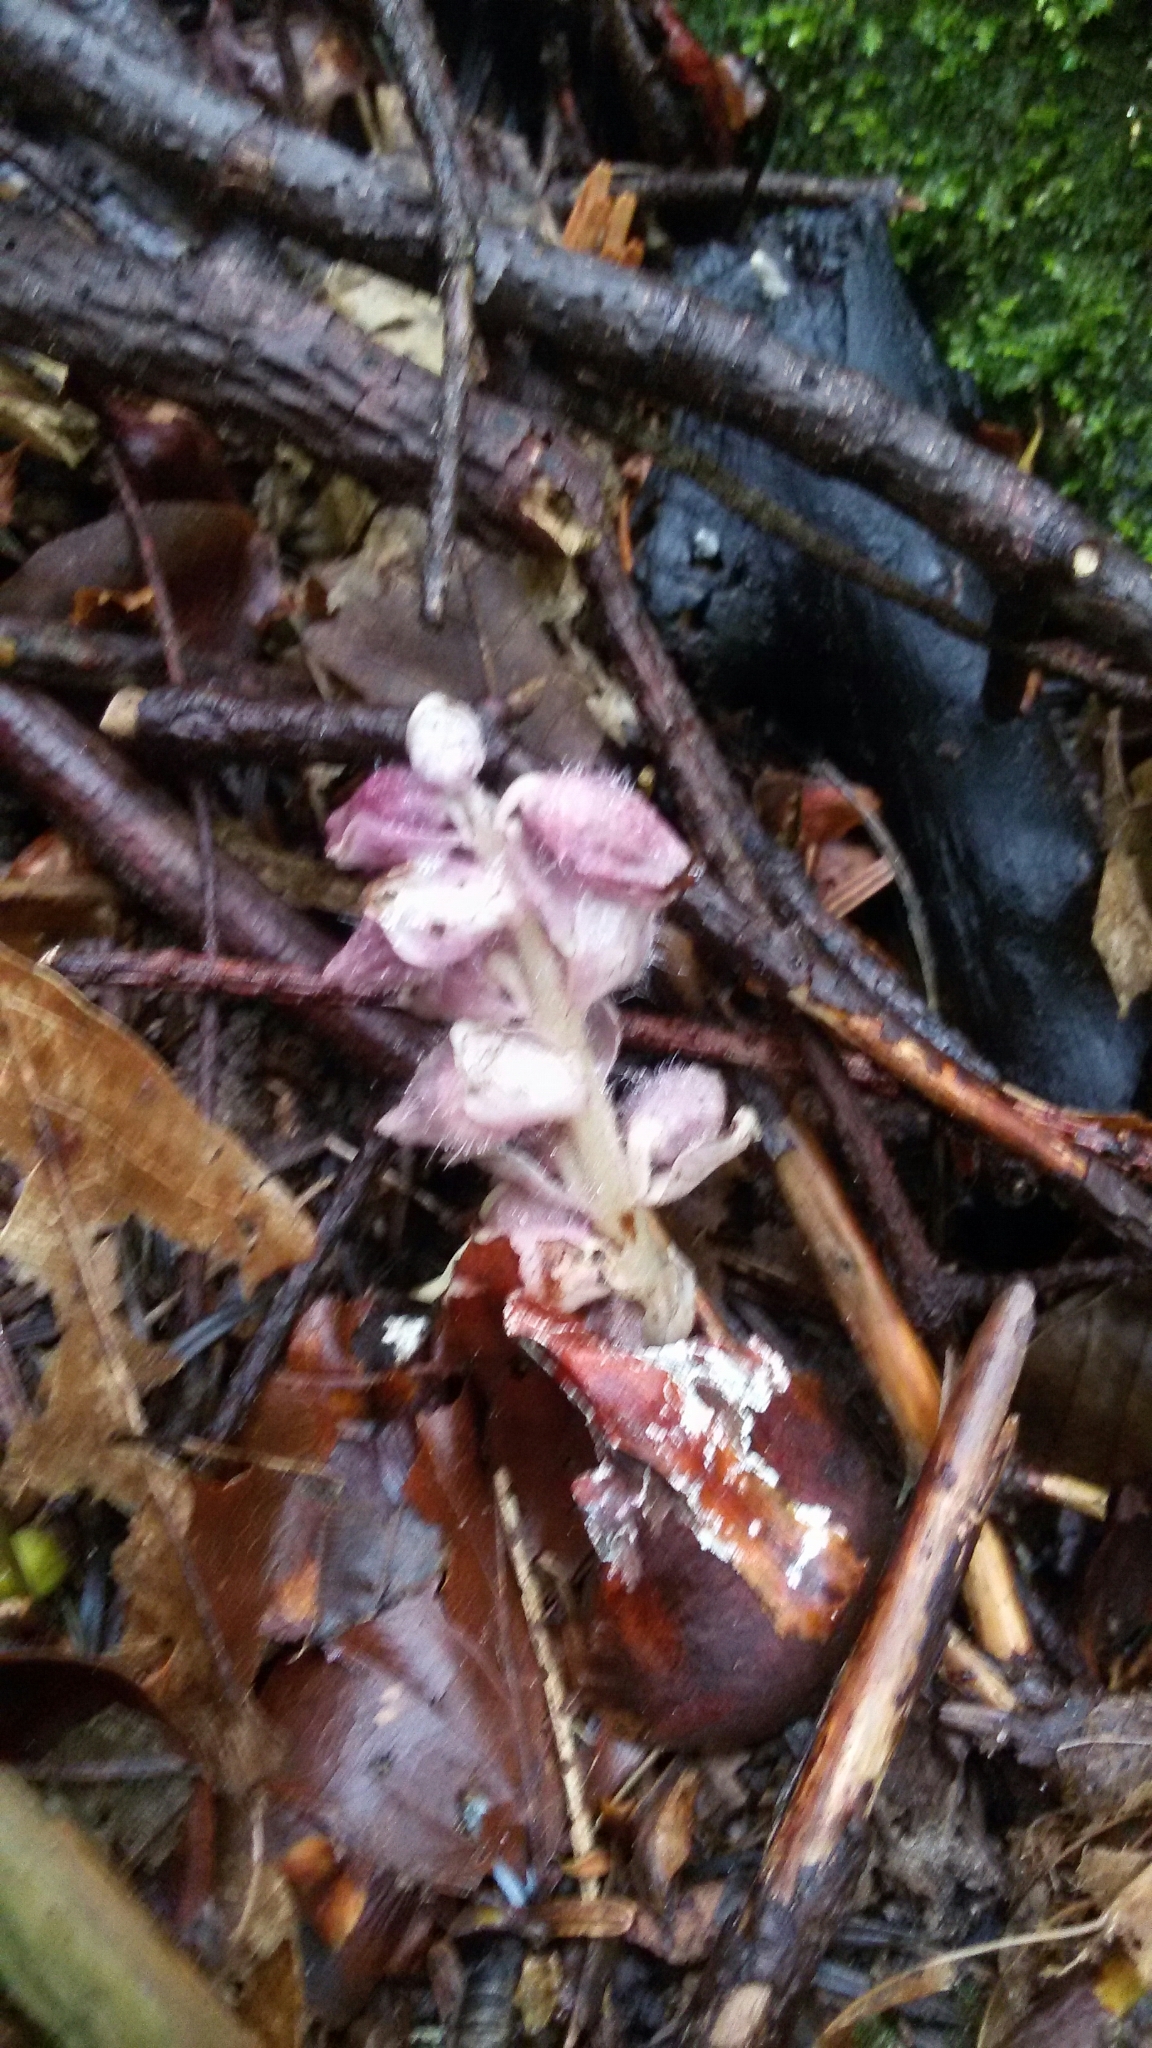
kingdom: Plantae
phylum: Tracheophyta
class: Magnoliopsida
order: Lamiales
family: Orobanchaceae
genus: Lathraea
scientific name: Lathraea squamaria
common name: Toothwort
